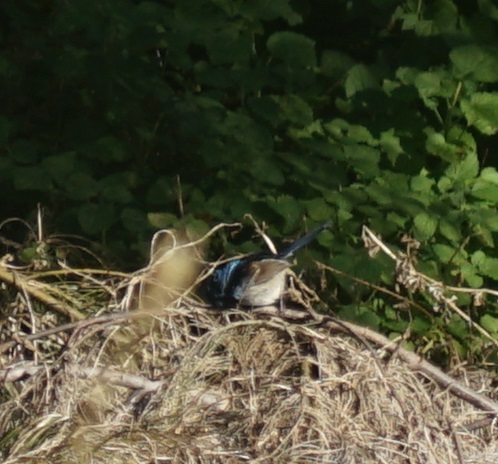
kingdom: Animalia
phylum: Chordata
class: Aves
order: Passeriformes
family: Maluridae
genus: Malurus
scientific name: Malurus cyaneus
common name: Superb fairywren
